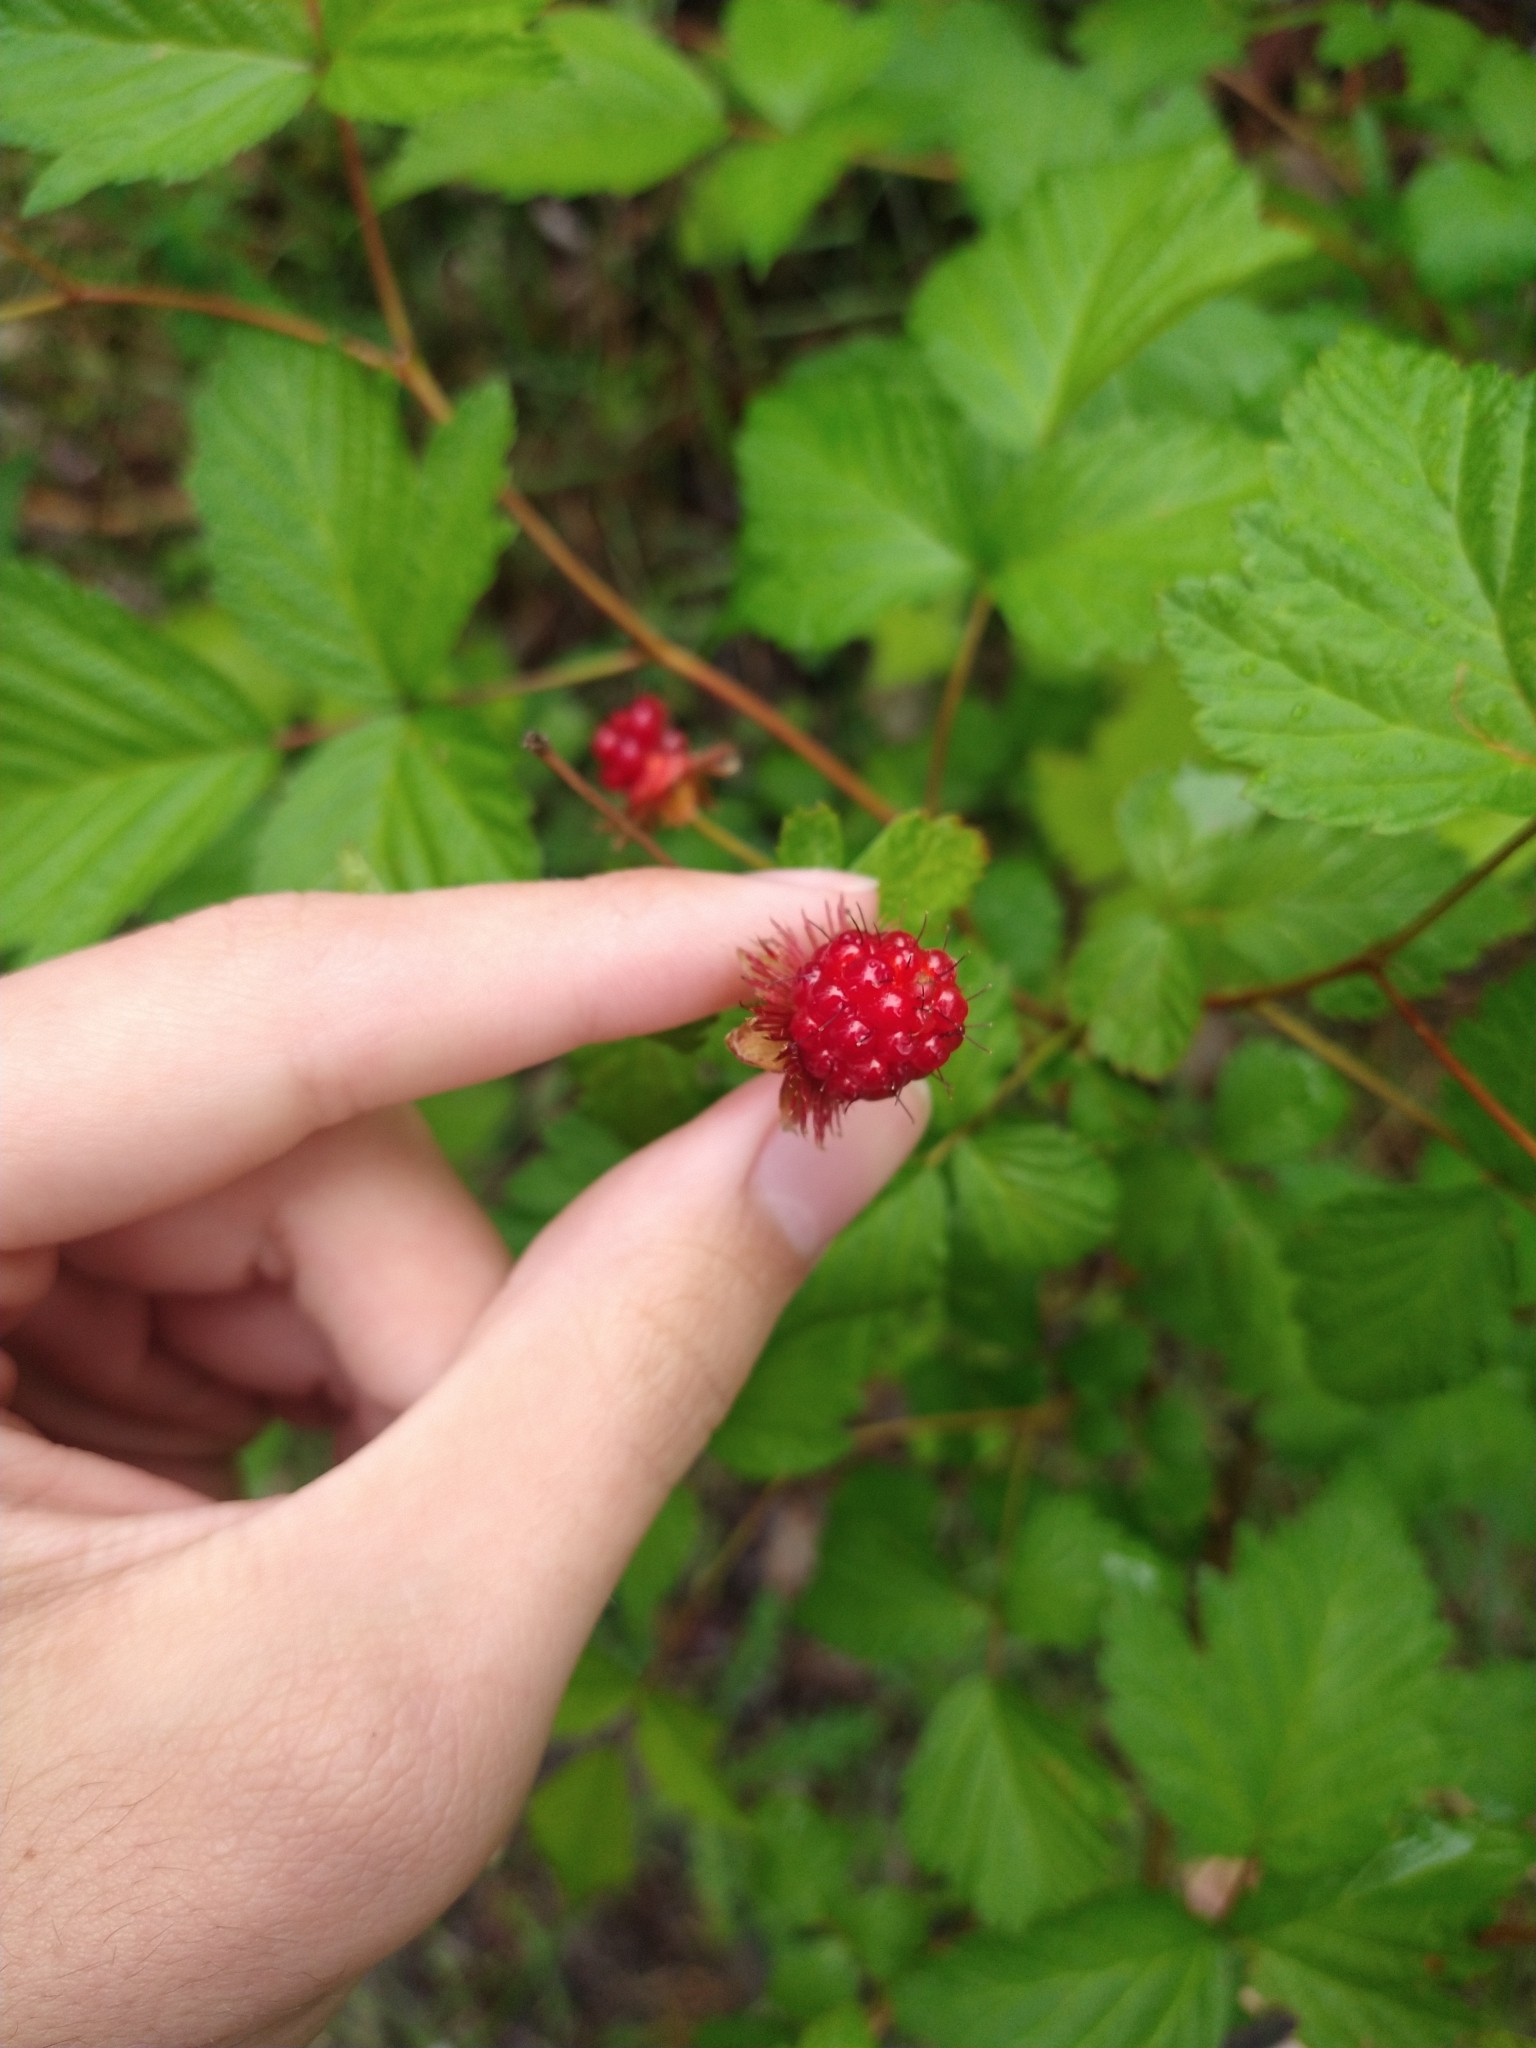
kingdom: Plantae
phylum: Tracheophyta
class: Magnoliopsida
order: Rosales
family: Rosaceae
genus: Rubus
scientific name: Rubus spectabilis
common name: Salmonberry
